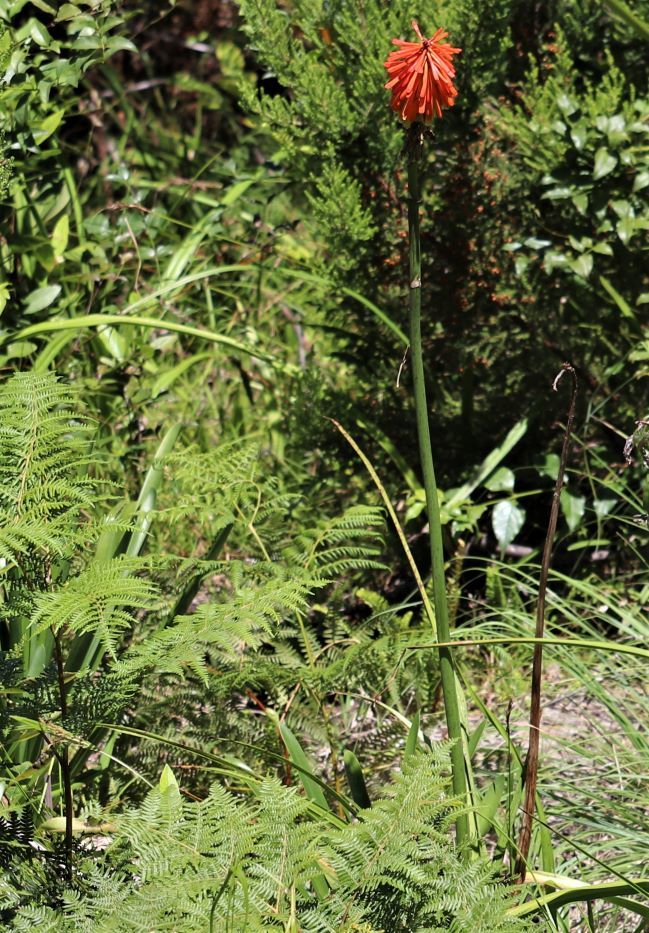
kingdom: Plantae
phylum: Tracheophyta
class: Liliopsida
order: Asparagales
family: Asphodelaceae
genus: Kniphofia
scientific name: Kniphofia uvaria
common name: Red-hot-poker
